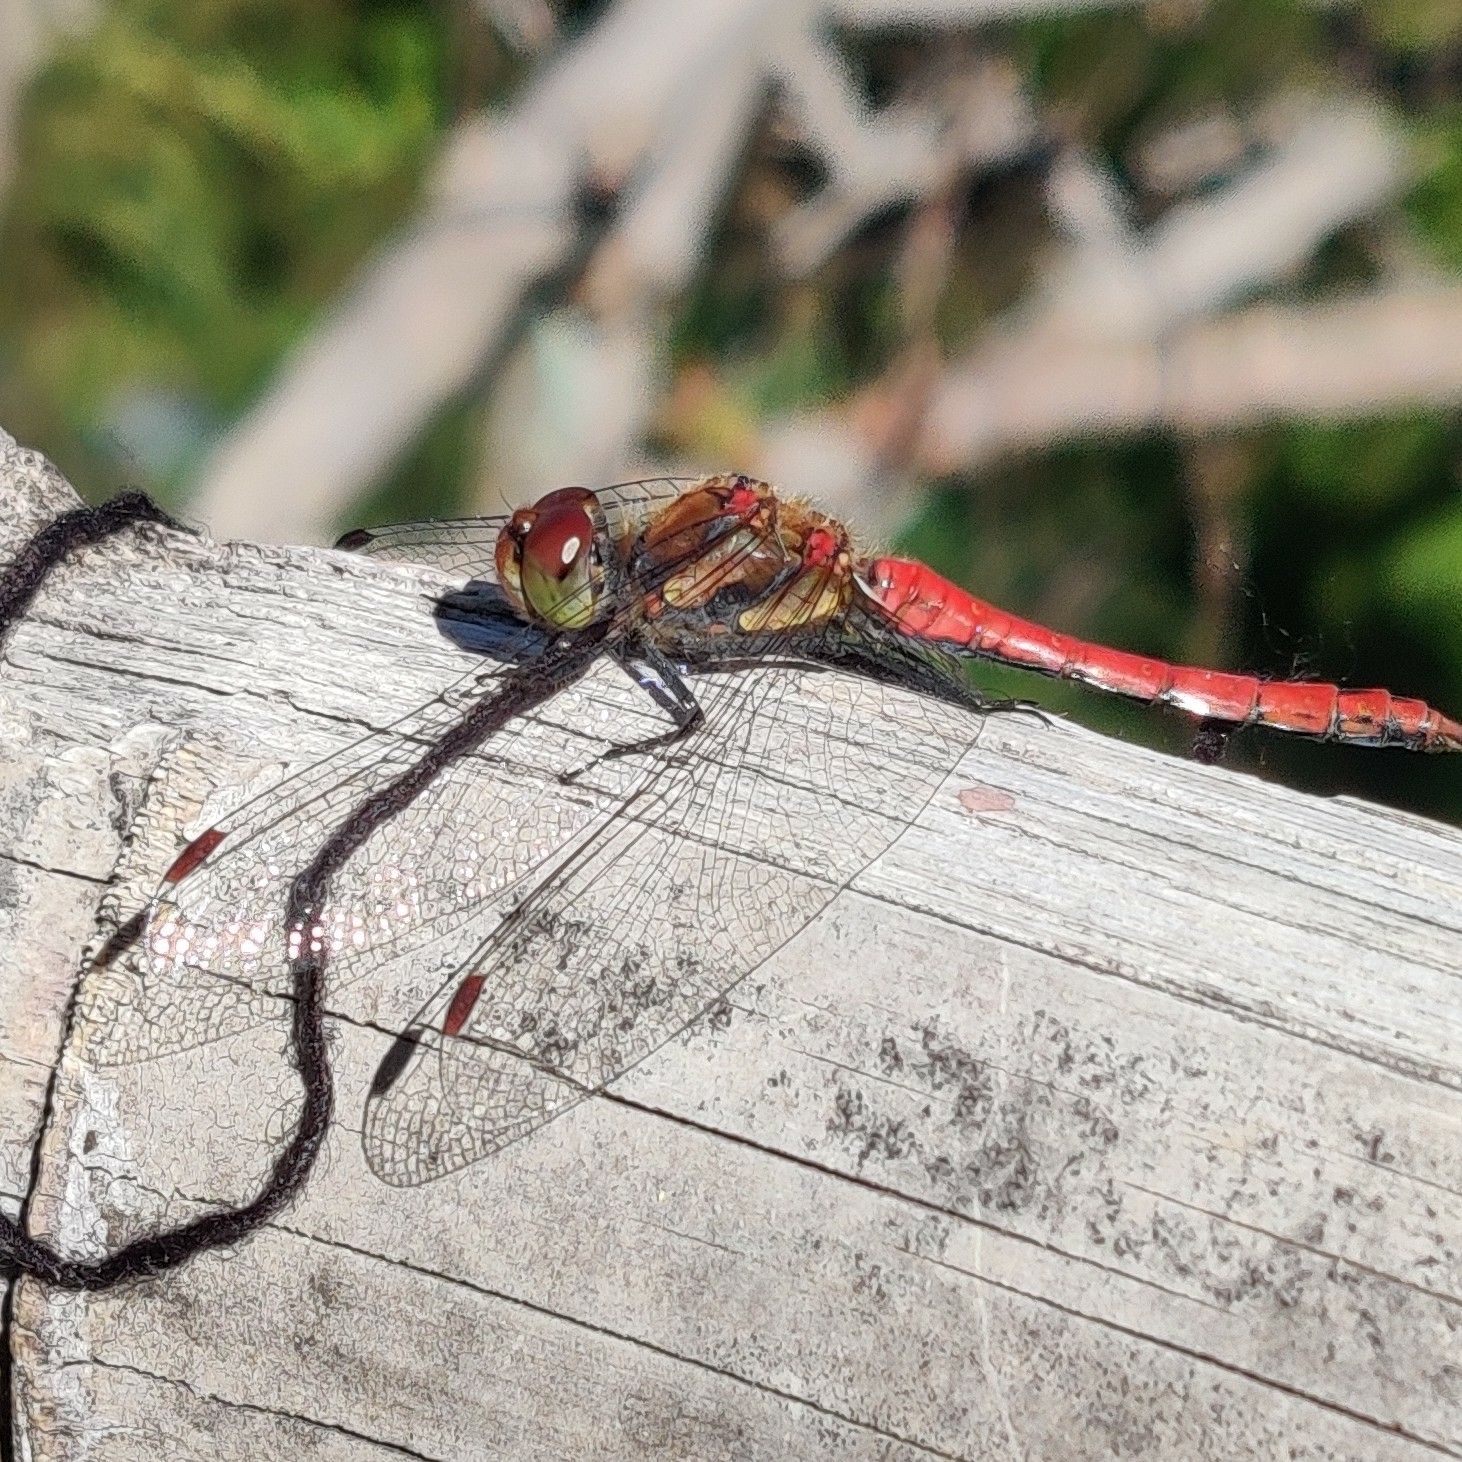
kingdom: Animalia
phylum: Arthropoda
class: Insecta
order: Odonata
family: Libellulidae
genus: Sympetrum
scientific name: Sympetrum striolatum
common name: Common darter
